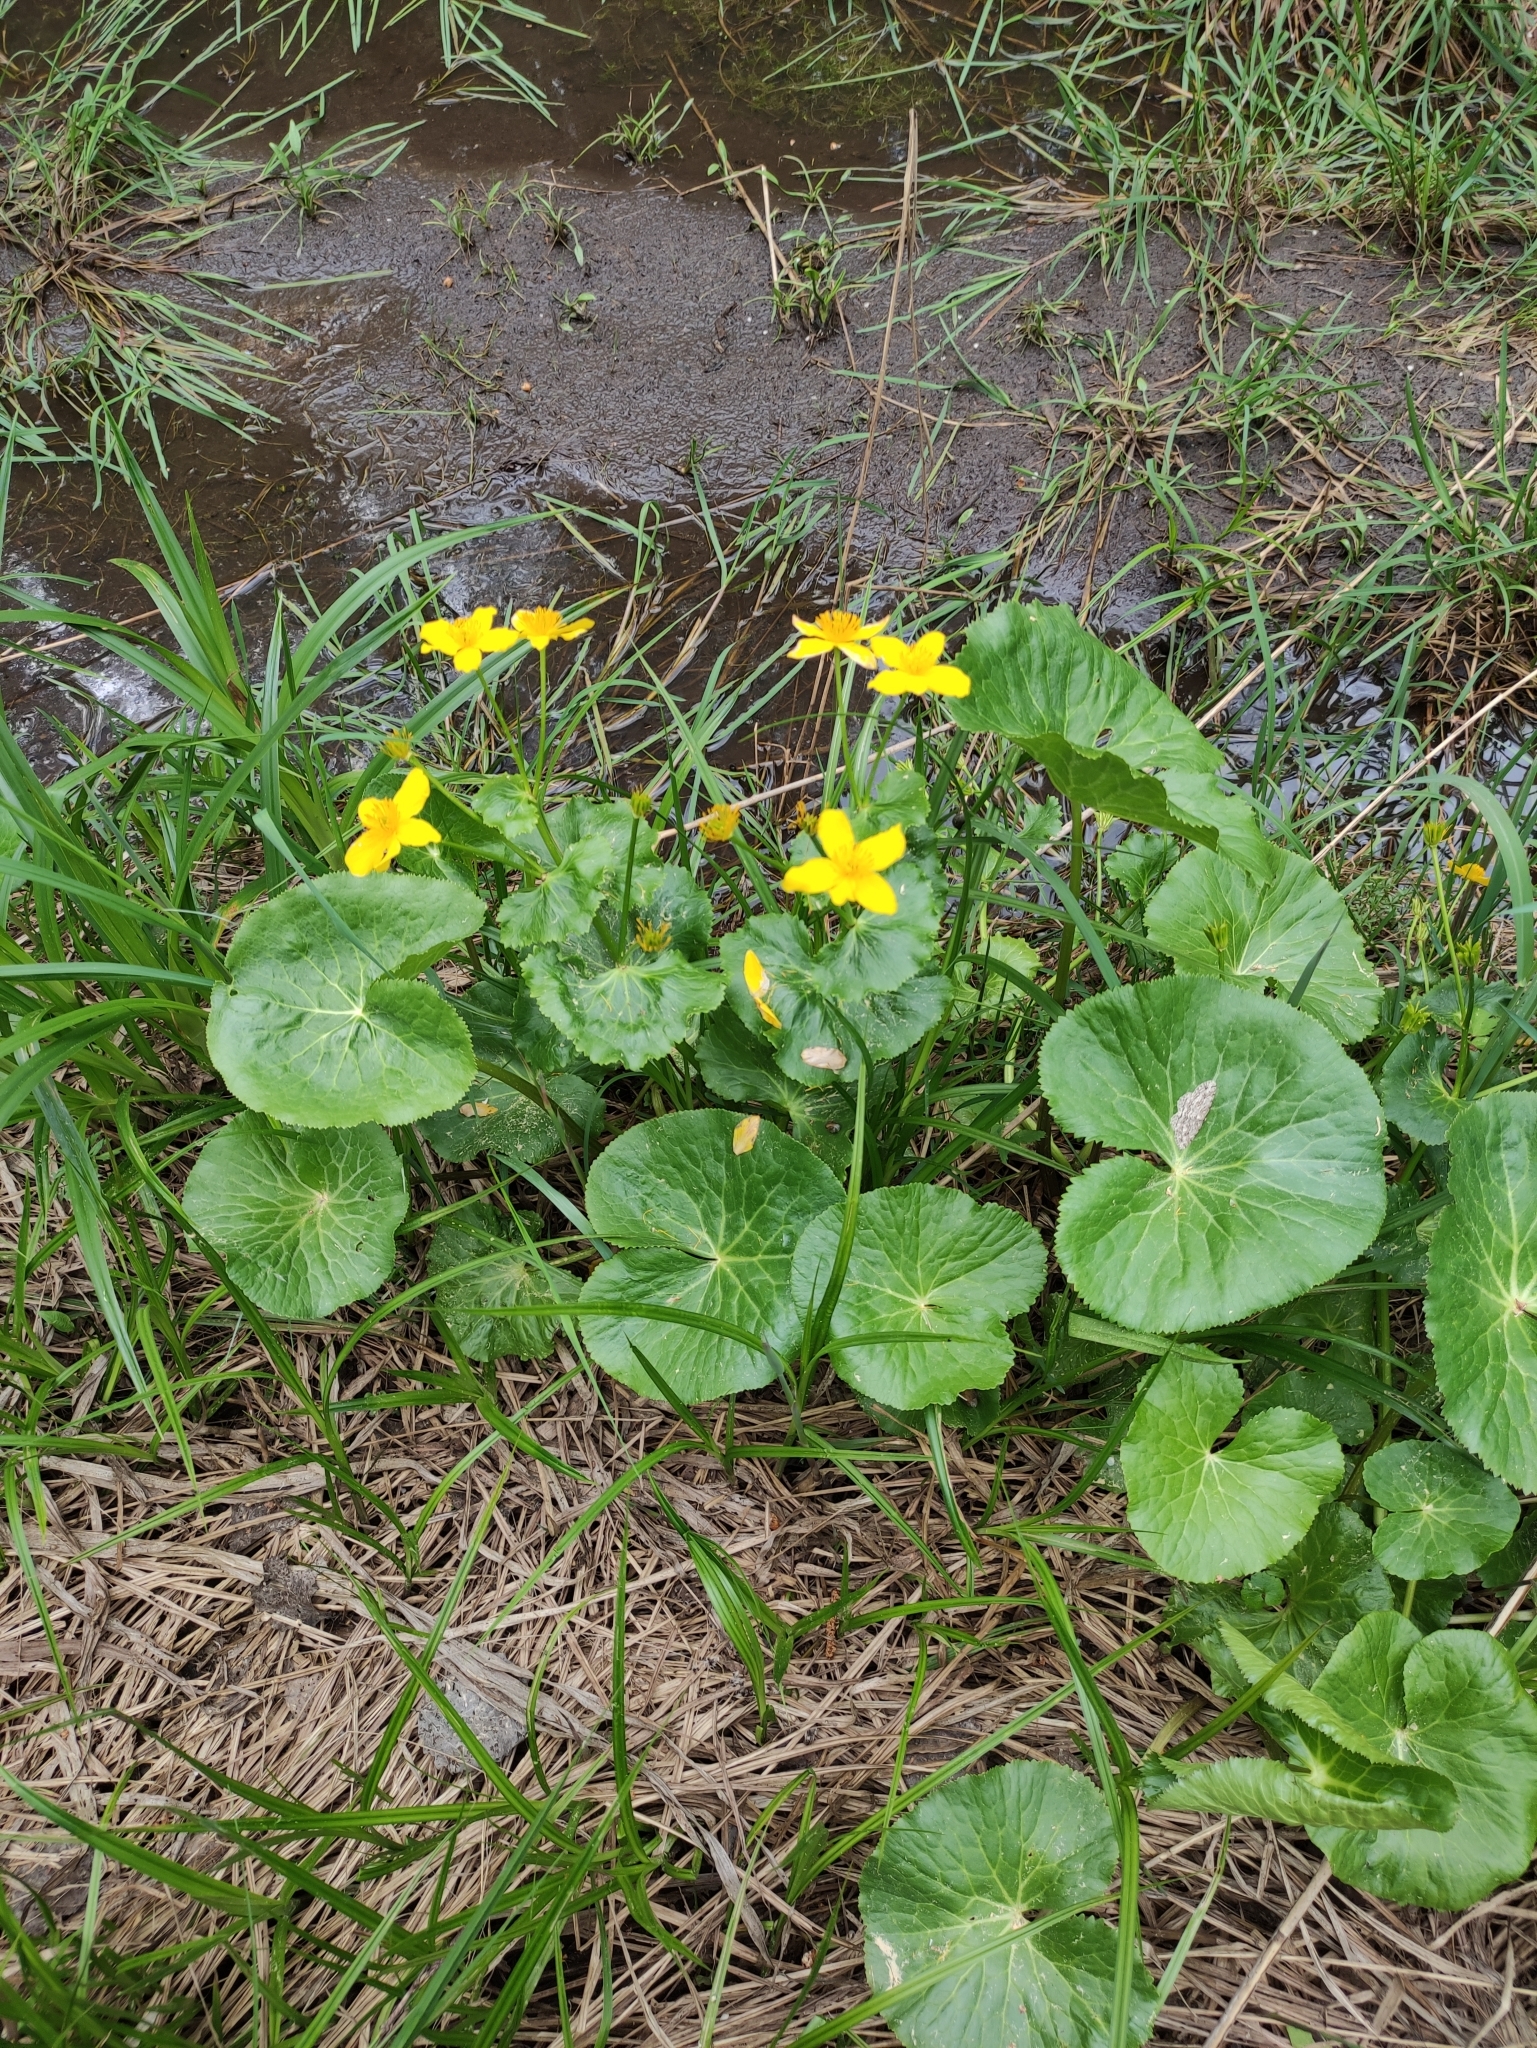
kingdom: Plantae
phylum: Tracheophyta
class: Magnoliopsida
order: Ranunculales
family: Ranunculaceae
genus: Caltha
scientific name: Caltha palustris
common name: Marsh marigold
